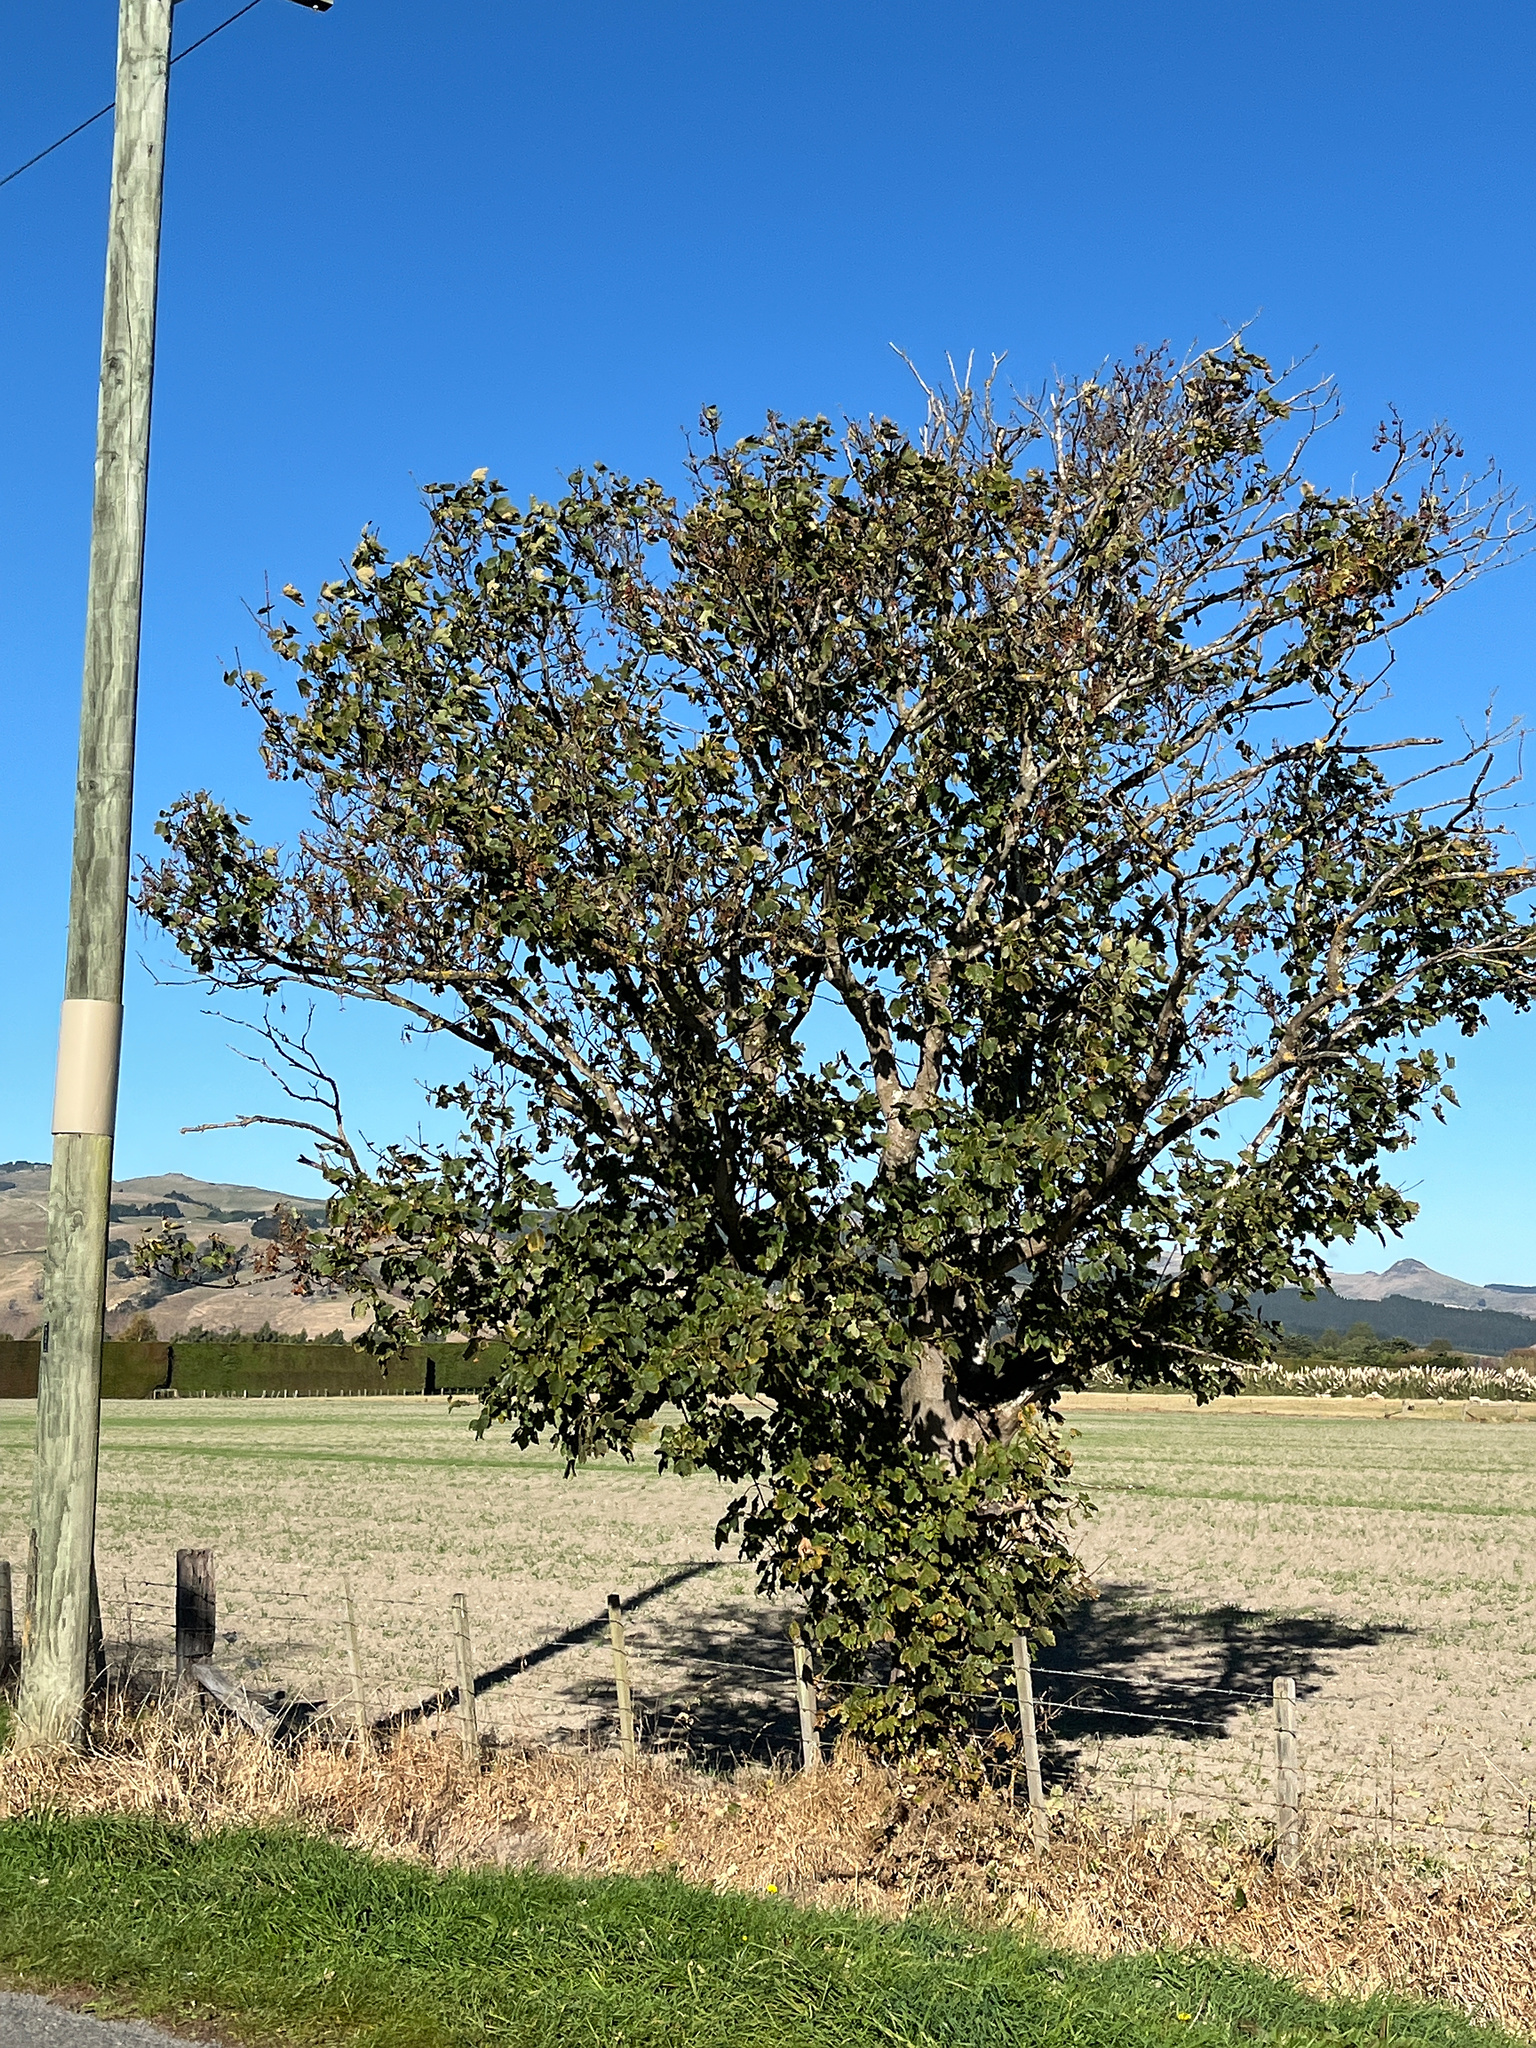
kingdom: Plantae
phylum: Tracheophyta
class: Magnoliopsida
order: Sapindales
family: Sapindaceae
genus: Acer
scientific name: Acer pseudoplatanus
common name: Sycamore
